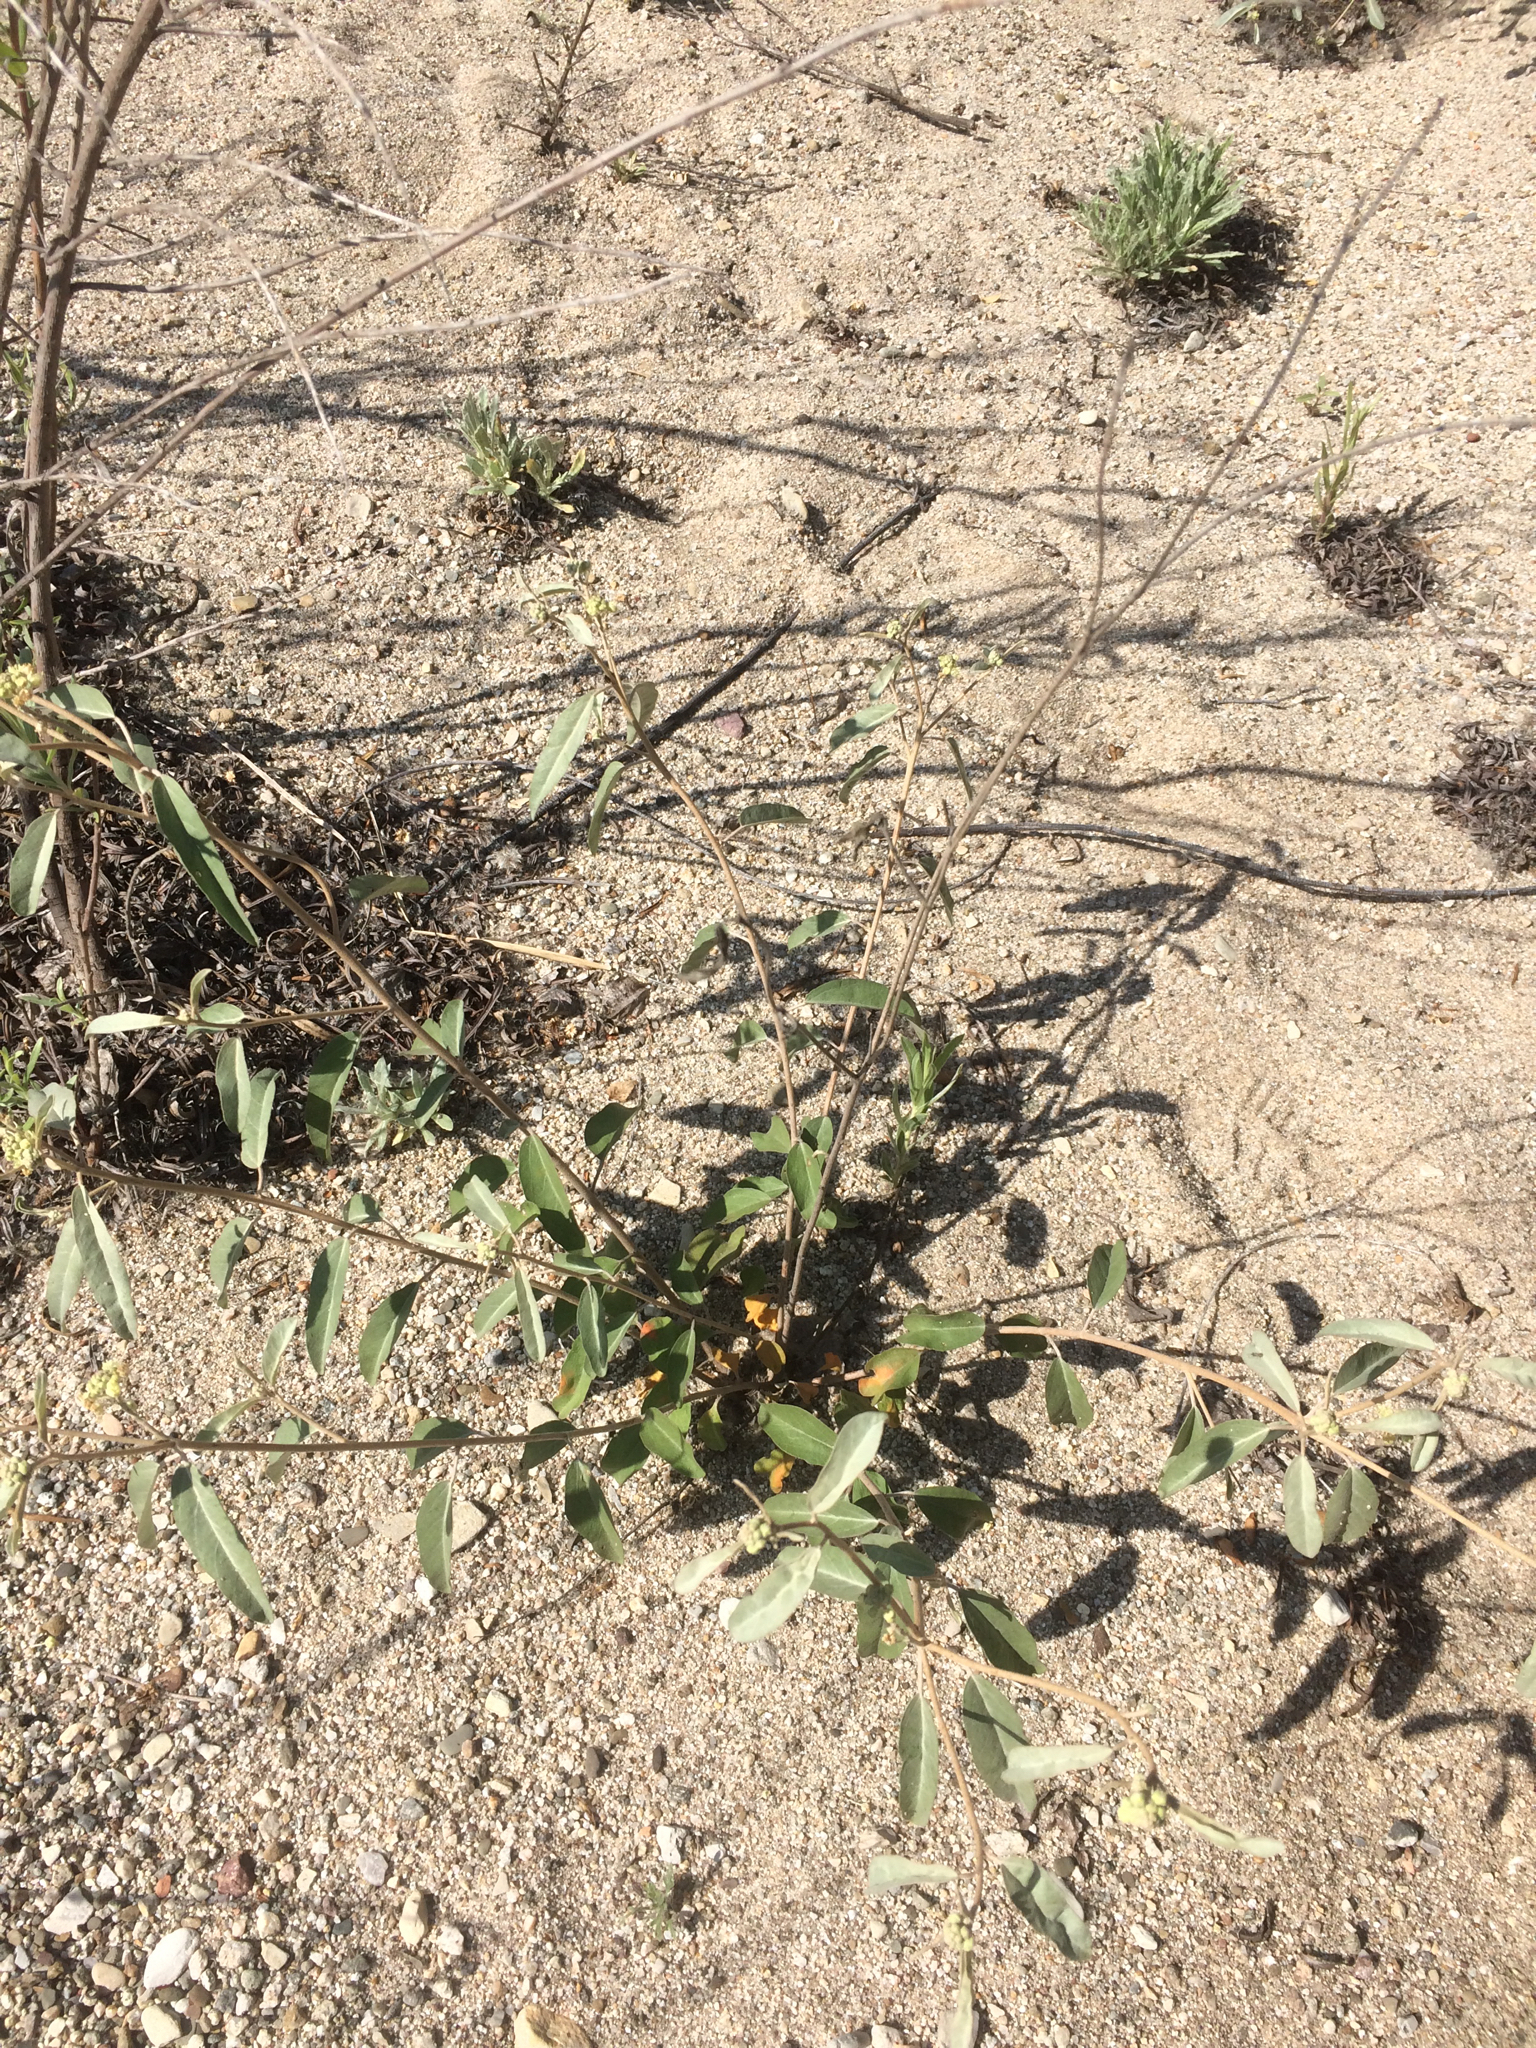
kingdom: Plantae
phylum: Tracheophyta
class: Magnoliopsida
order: Malpighiales
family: Euphorbiaceae
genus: Croton
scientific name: Croton californicus
